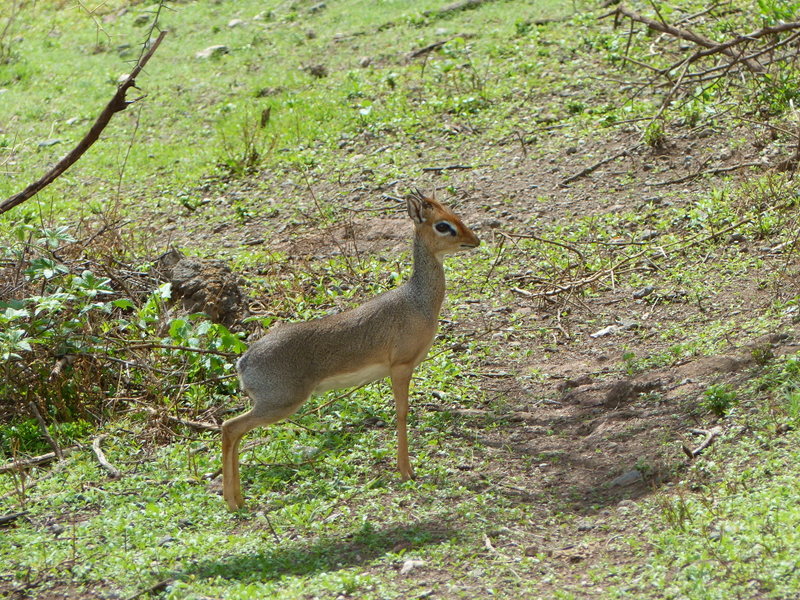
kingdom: Animalia
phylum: Chordata
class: Mammalia
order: Artiodactyla
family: Bovidae
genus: Madoqua
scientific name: Madoqua
